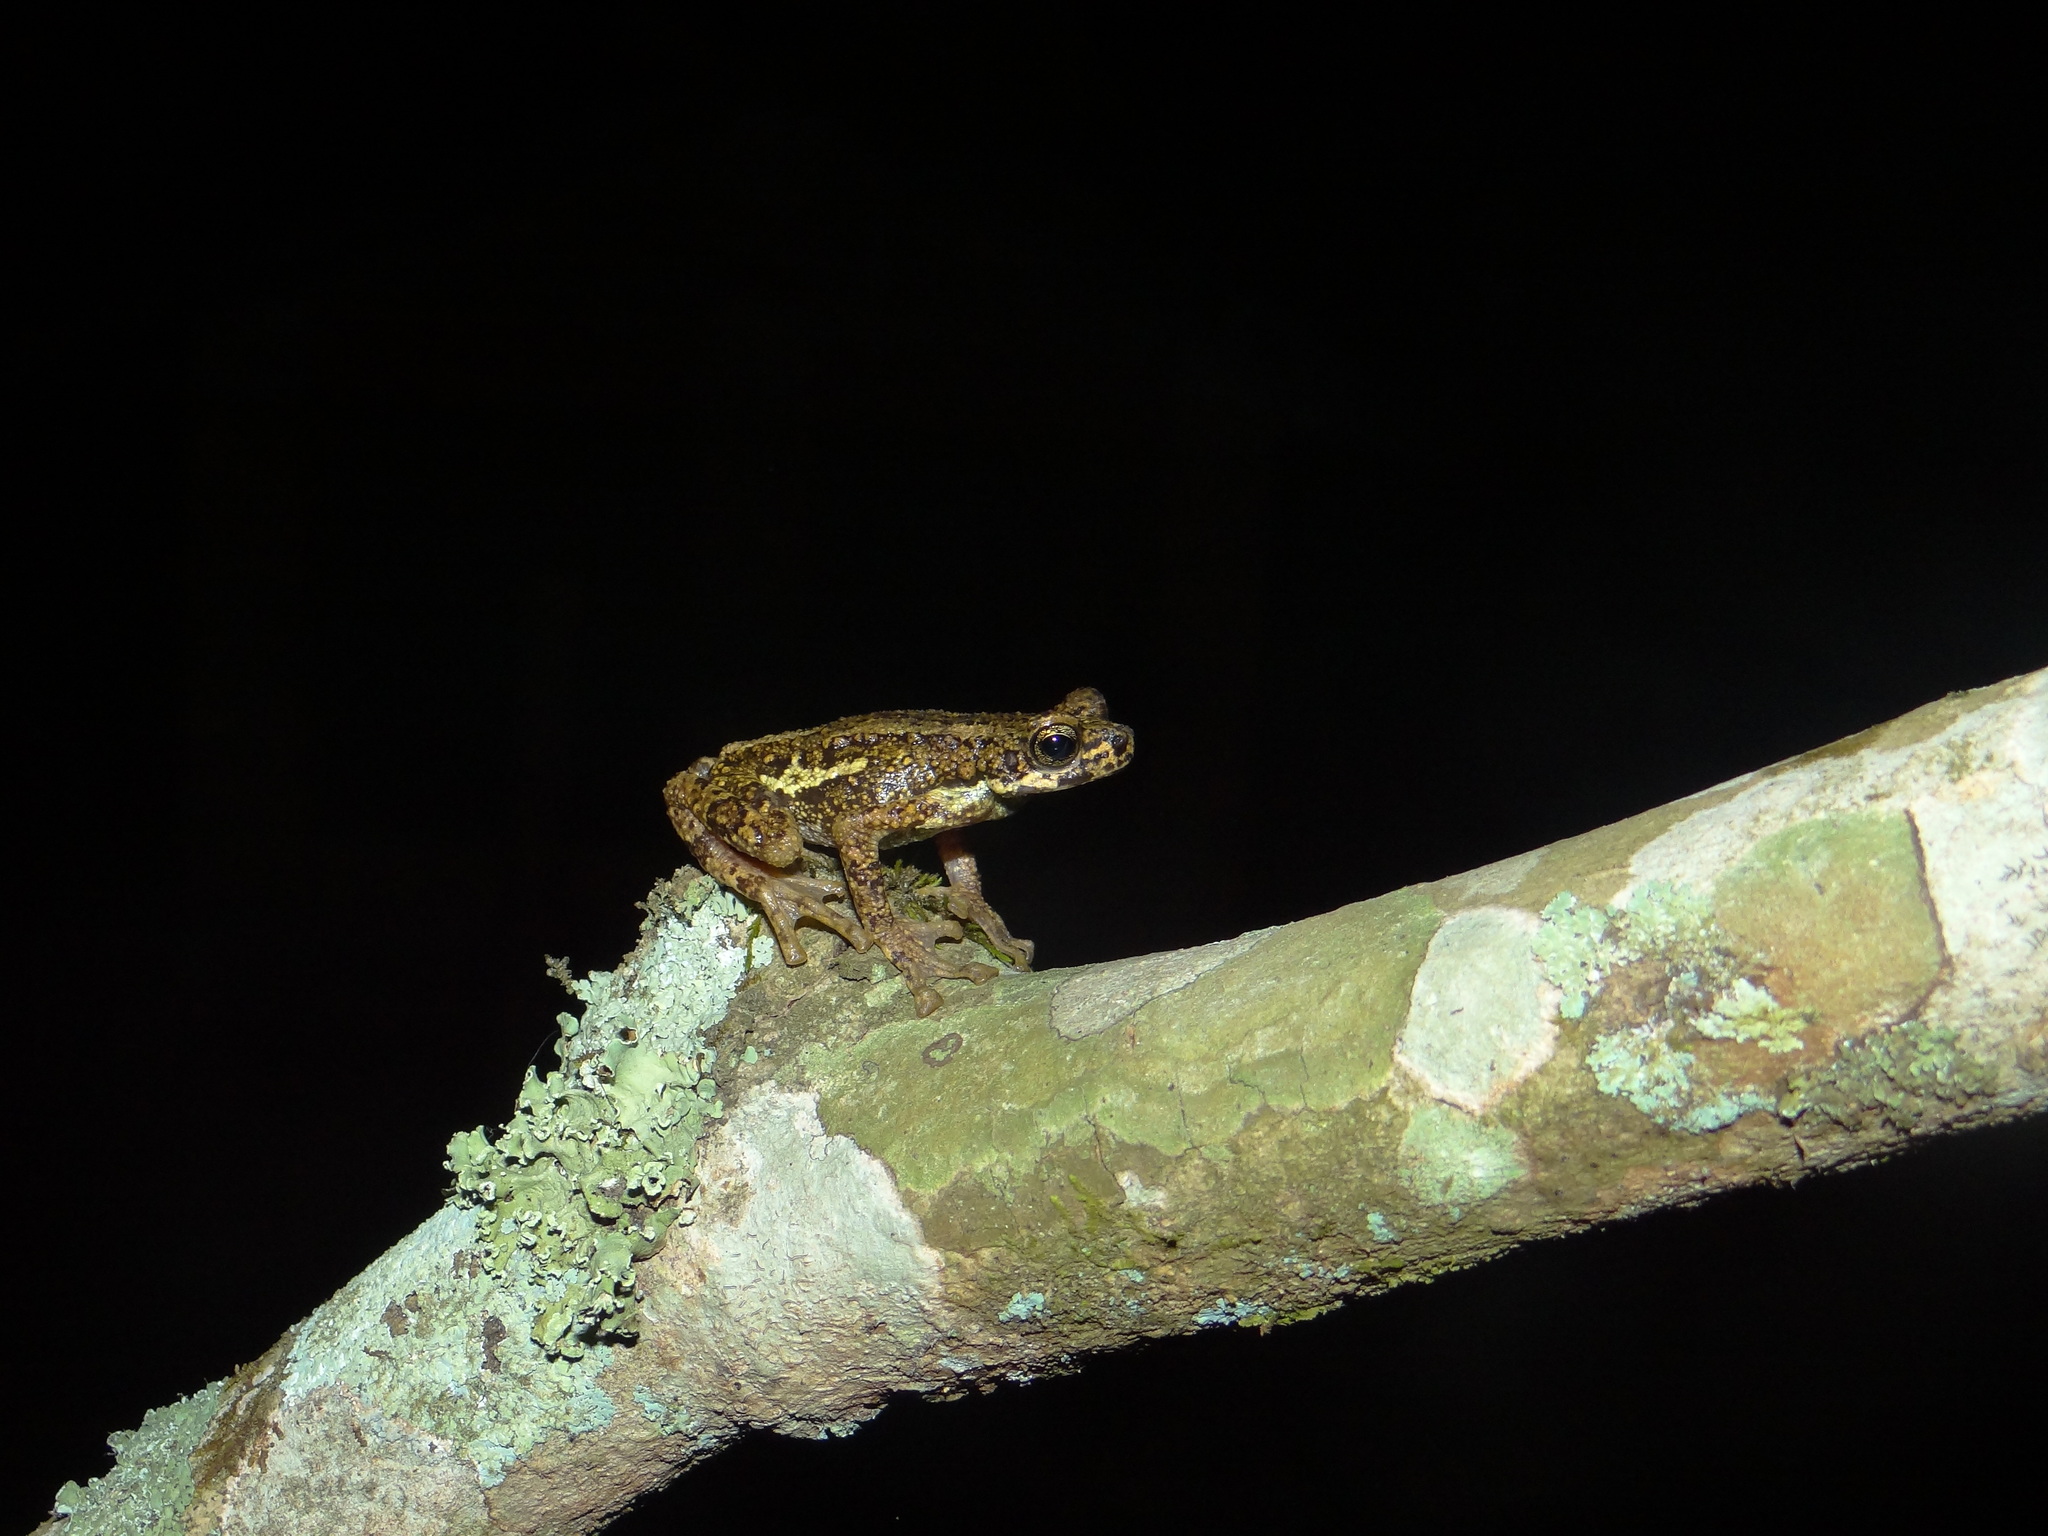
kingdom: Animalia
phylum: Chordata
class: Amphibia
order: Anura
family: Bufonidae
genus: Pedostibes
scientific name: Pedostibes tuberculosus
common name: Malabar tree toad
